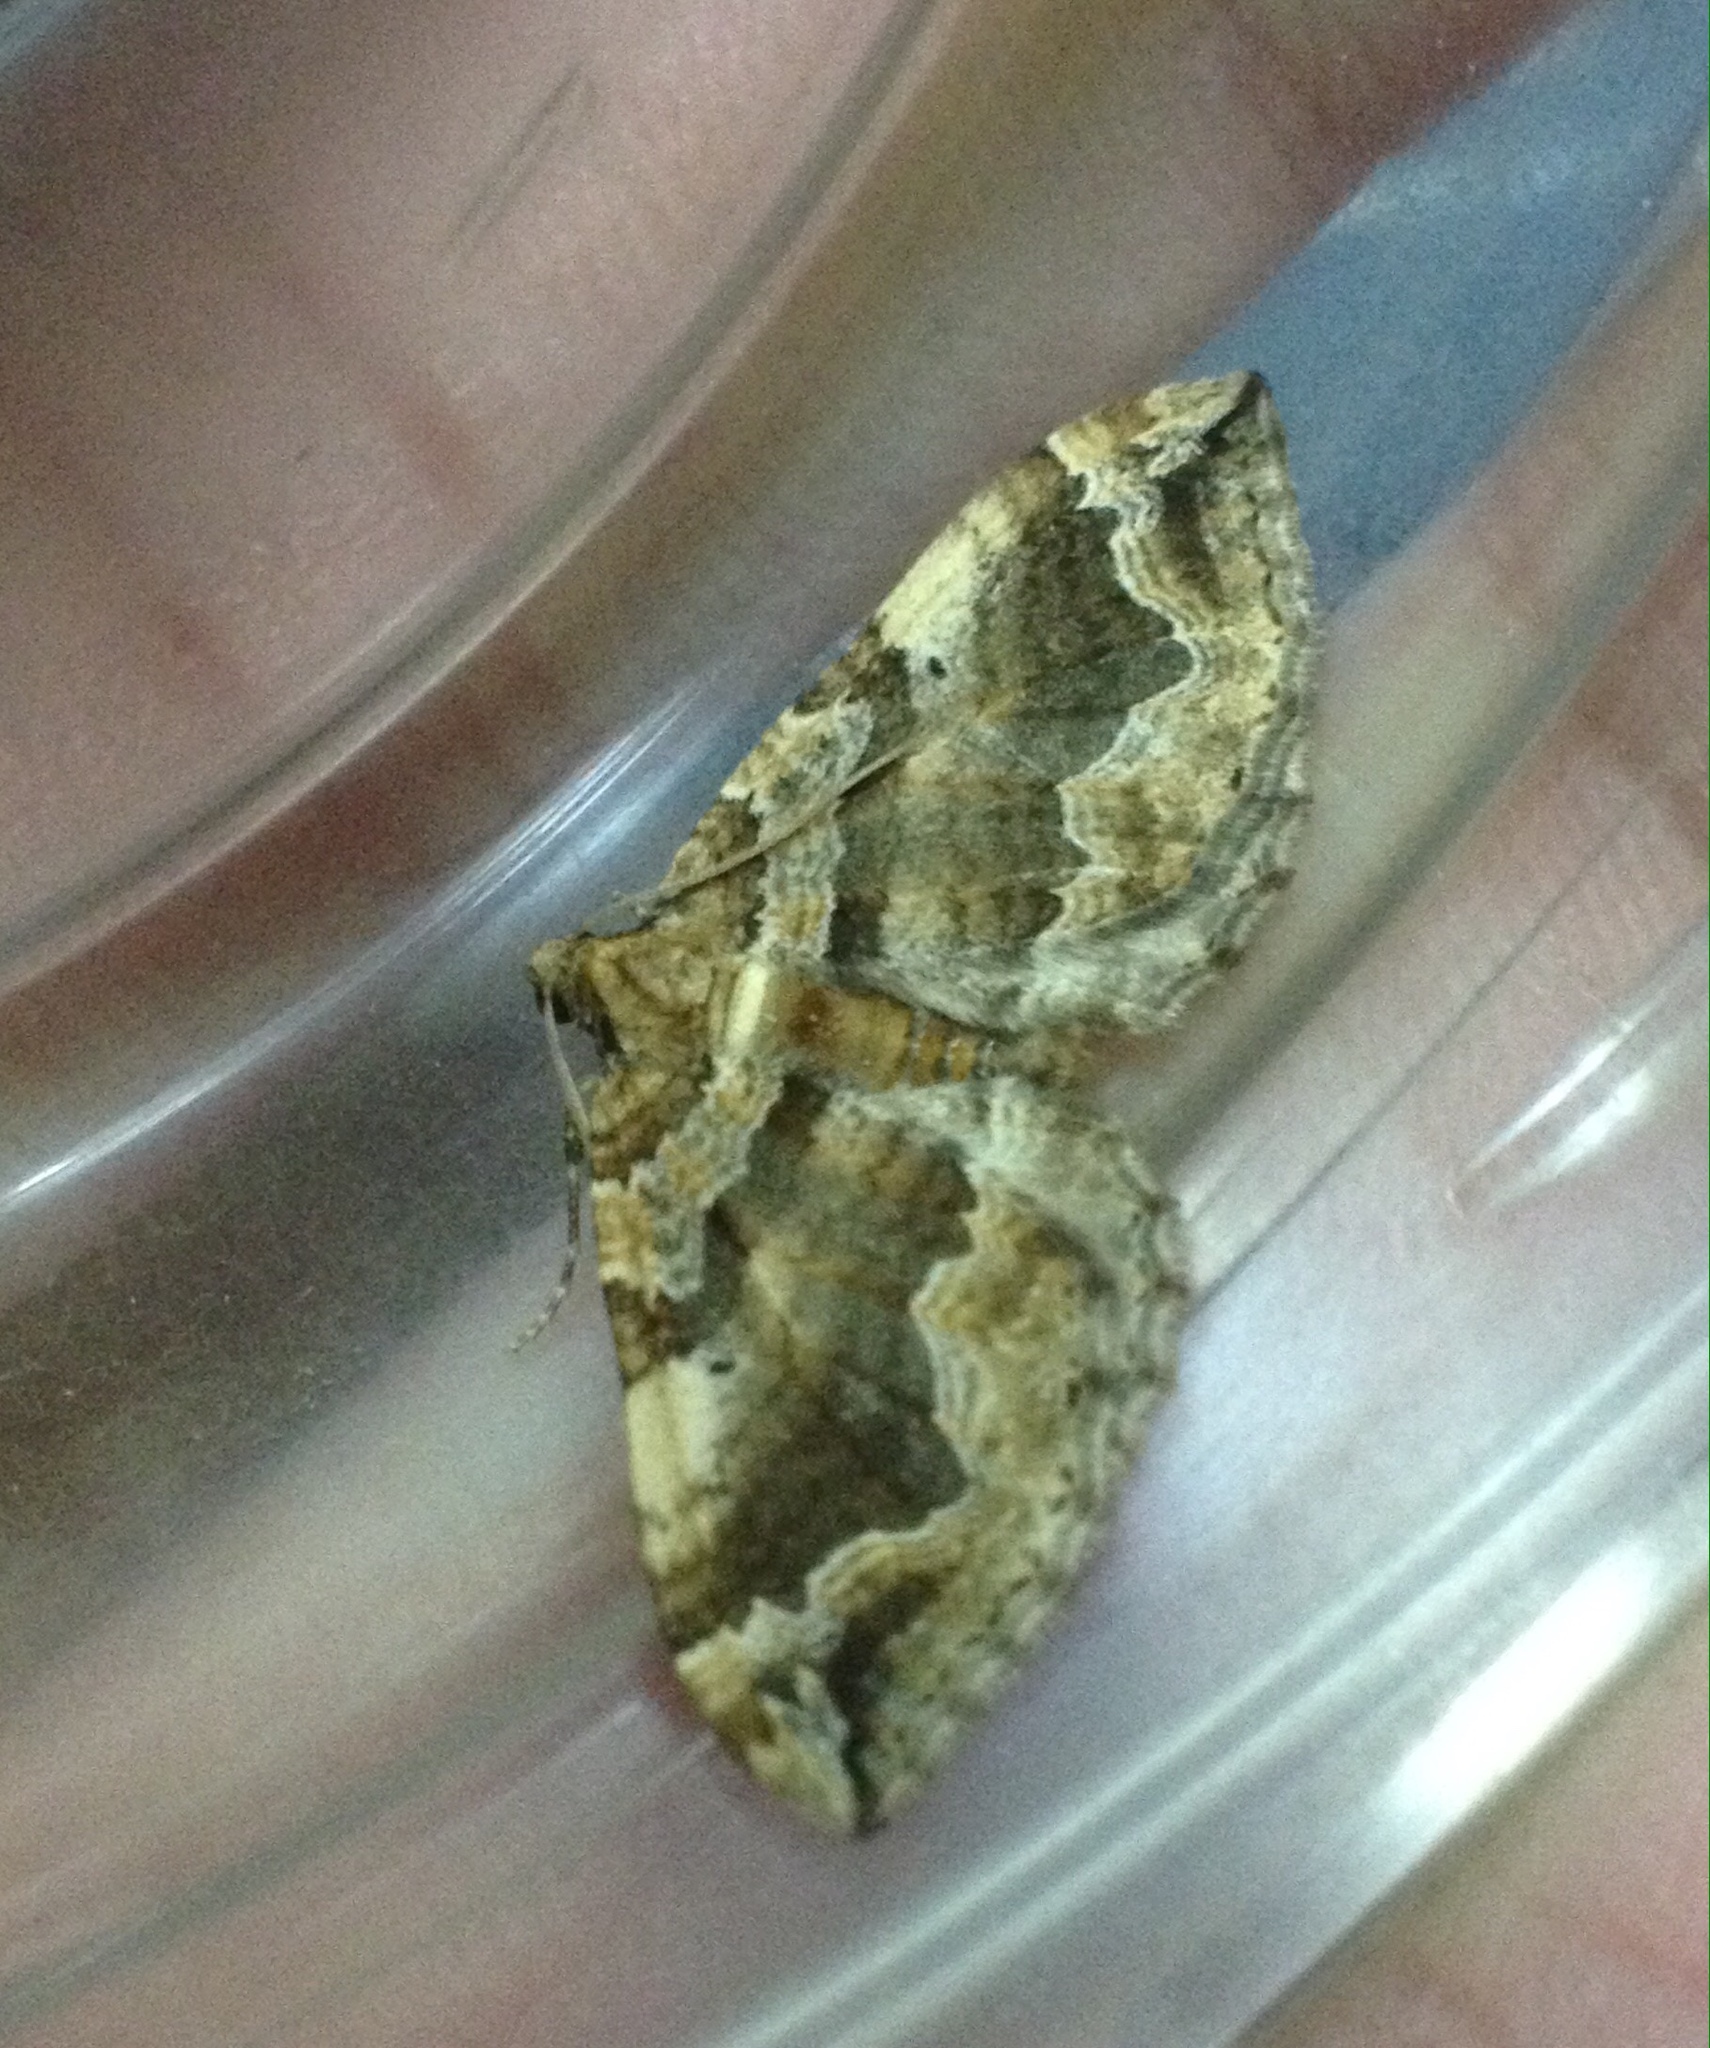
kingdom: Animalia
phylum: Arthropoda
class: Insecta
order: Lepidoptera
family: Geometridae
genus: Pelurga
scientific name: Pelurga comitata
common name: Dark spinach
